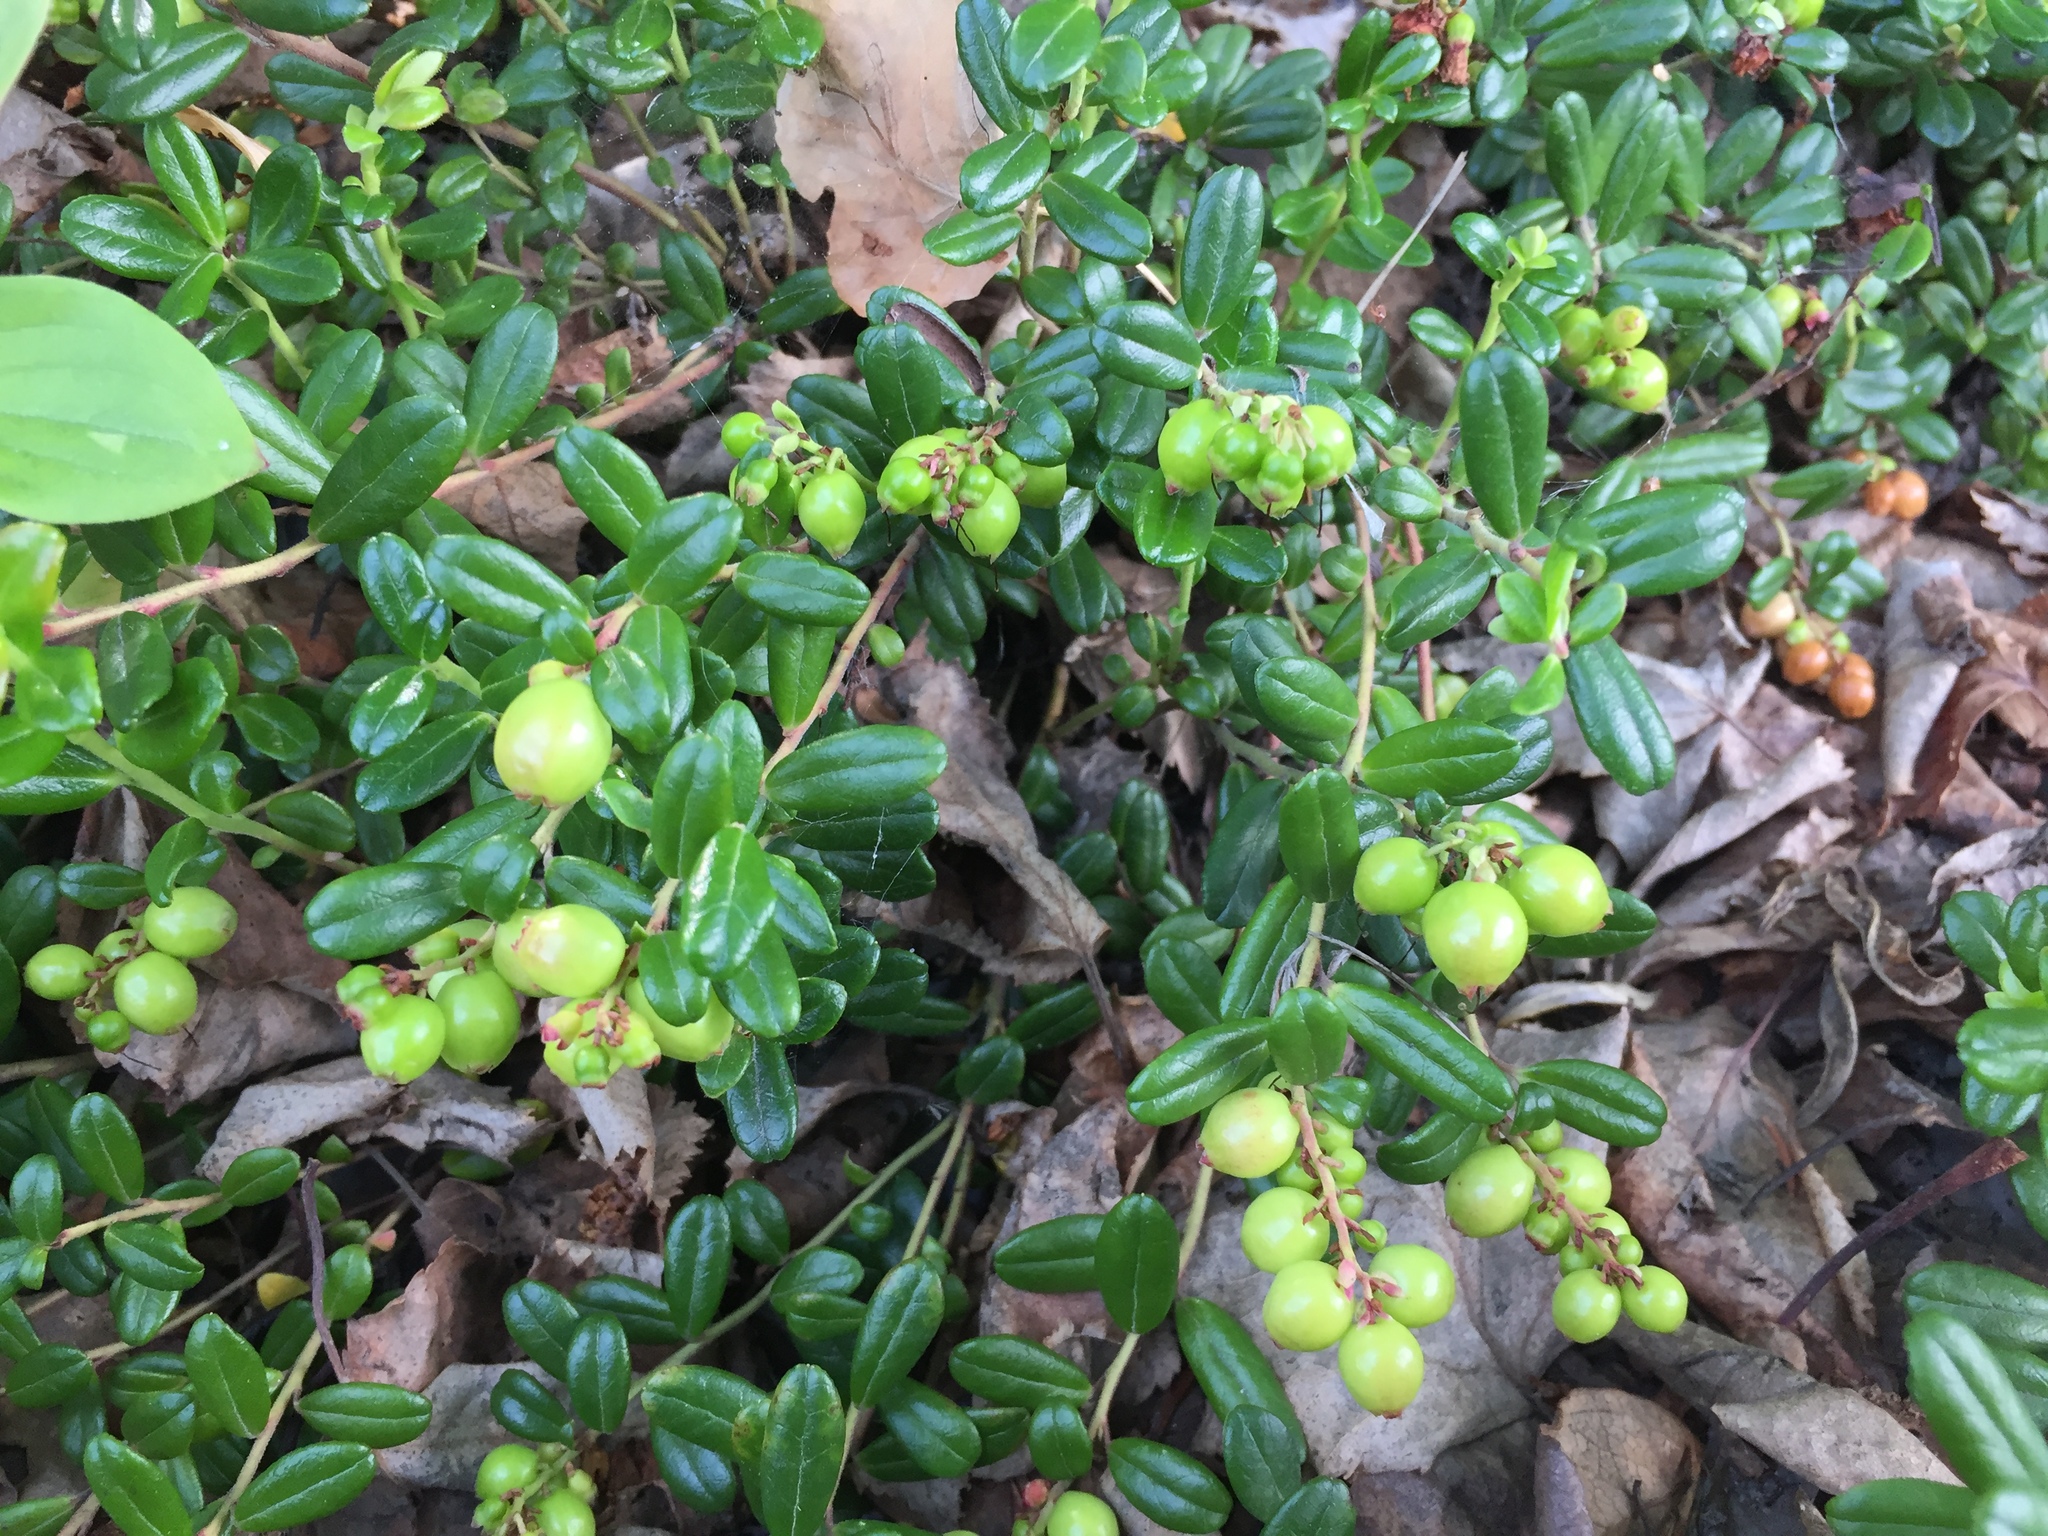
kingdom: Plantae
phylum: Tracheophyta
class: Magnoliopsida
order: Ericales
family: Ericaceae
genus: Vaccinium
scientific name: Vaccinium vitis-idaea
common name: Cowberry
